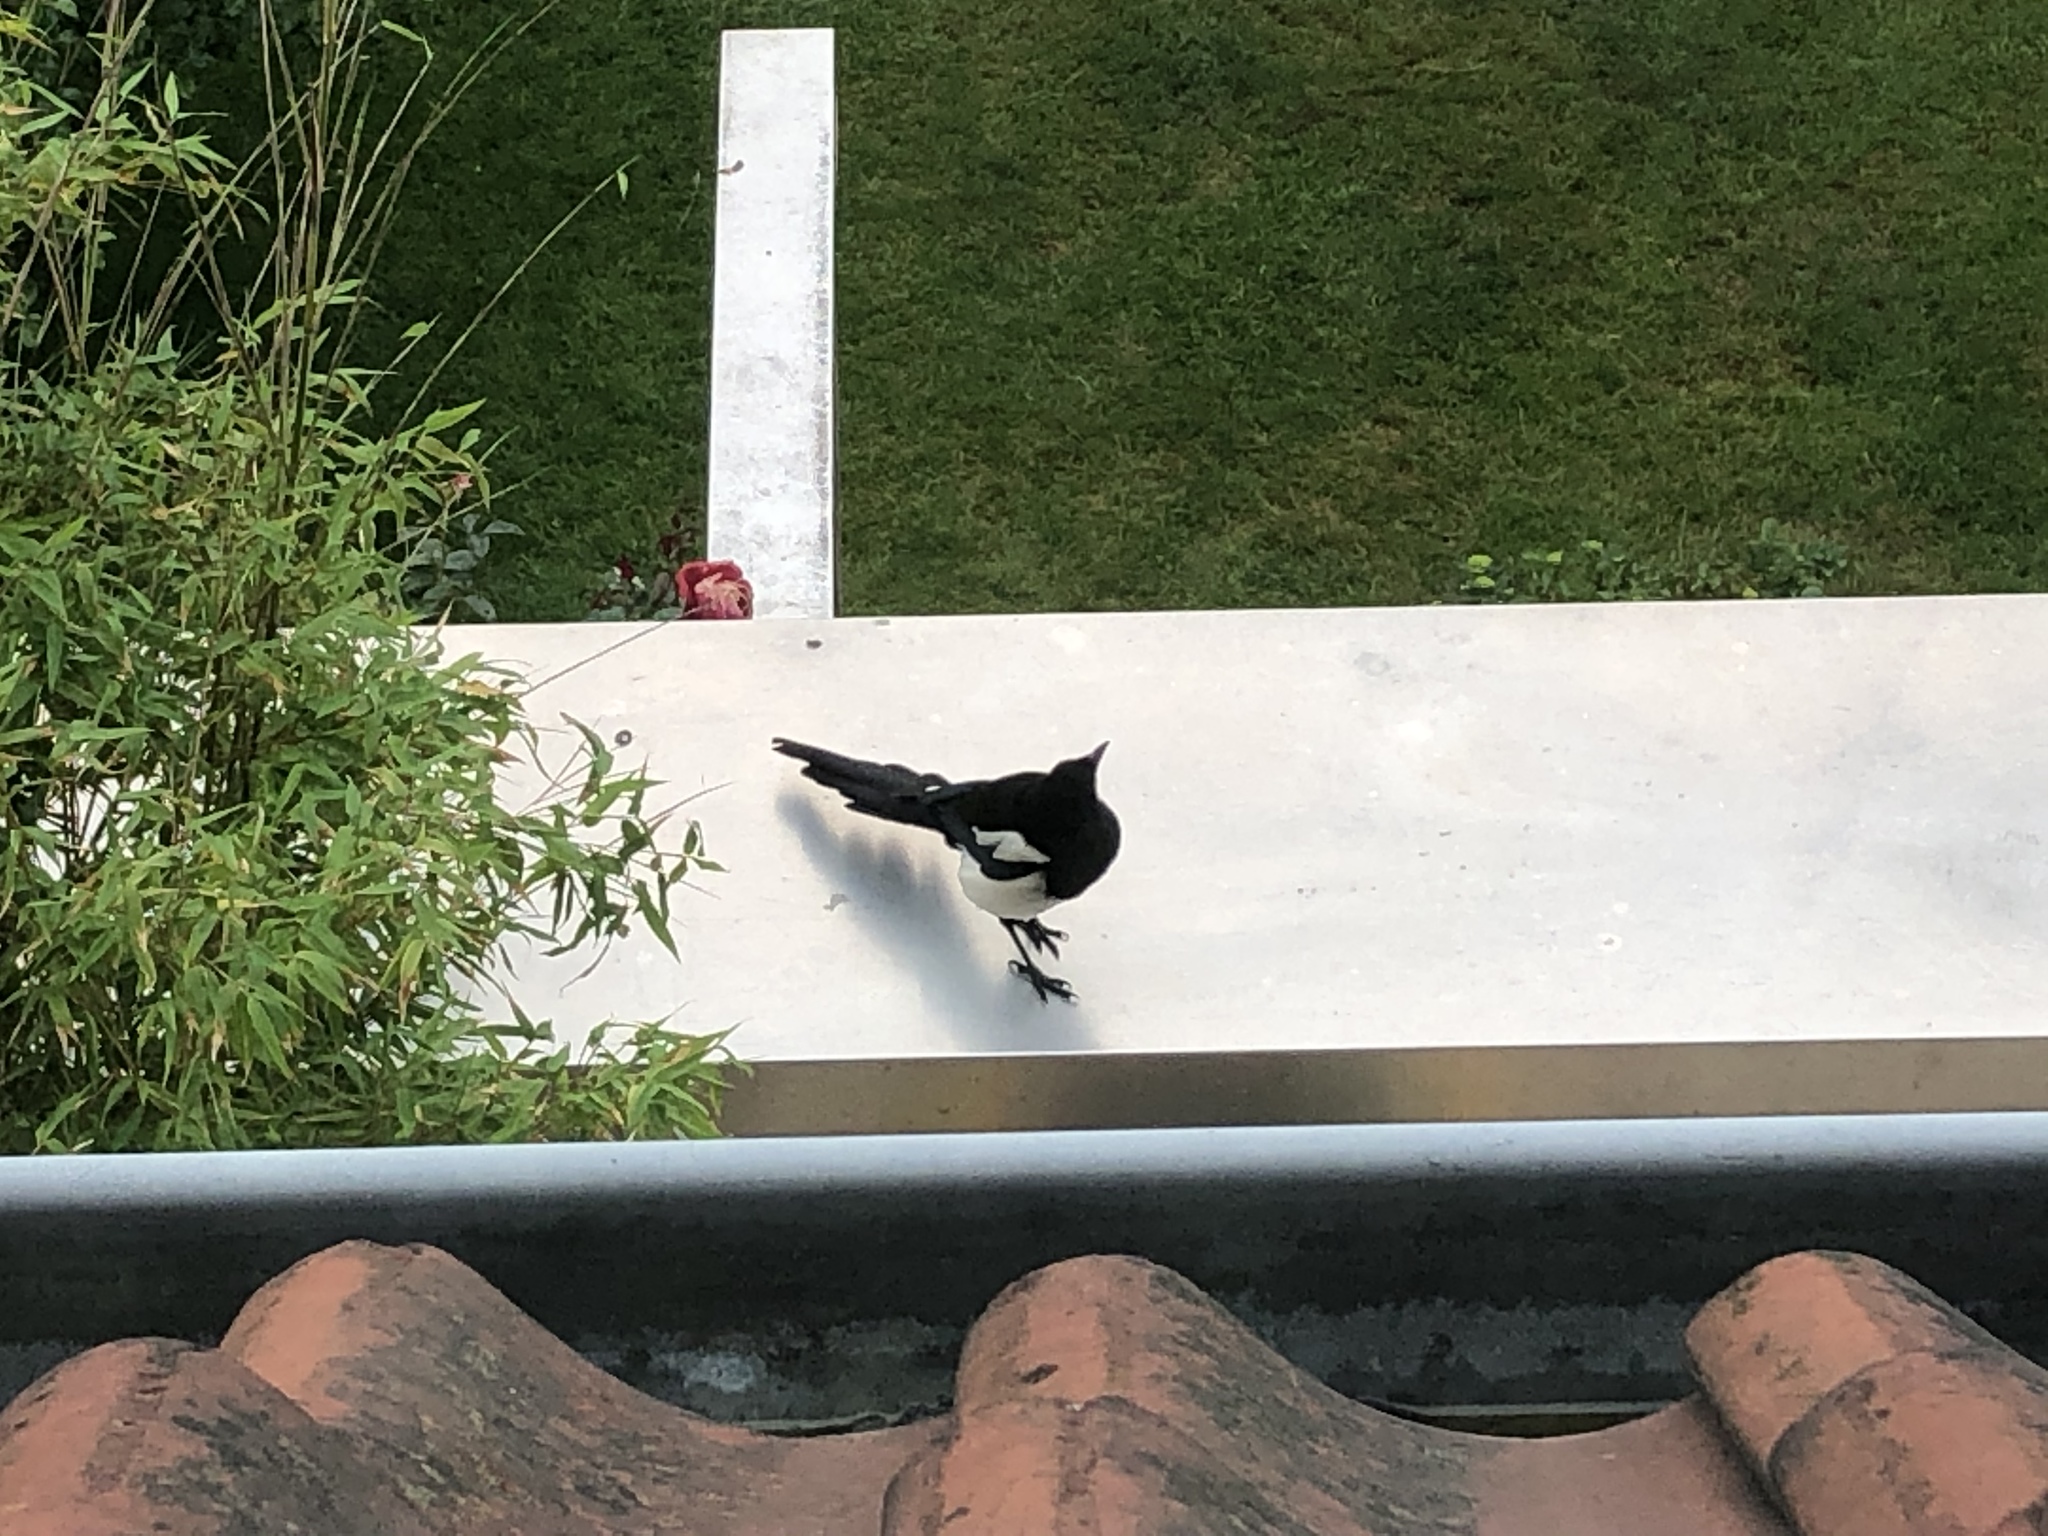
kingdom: Animalia
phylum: Chordata
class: Aves
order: Passeriformes
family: Corvidae
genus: Pica
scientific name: Pica pica
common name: Eurasian magpie
